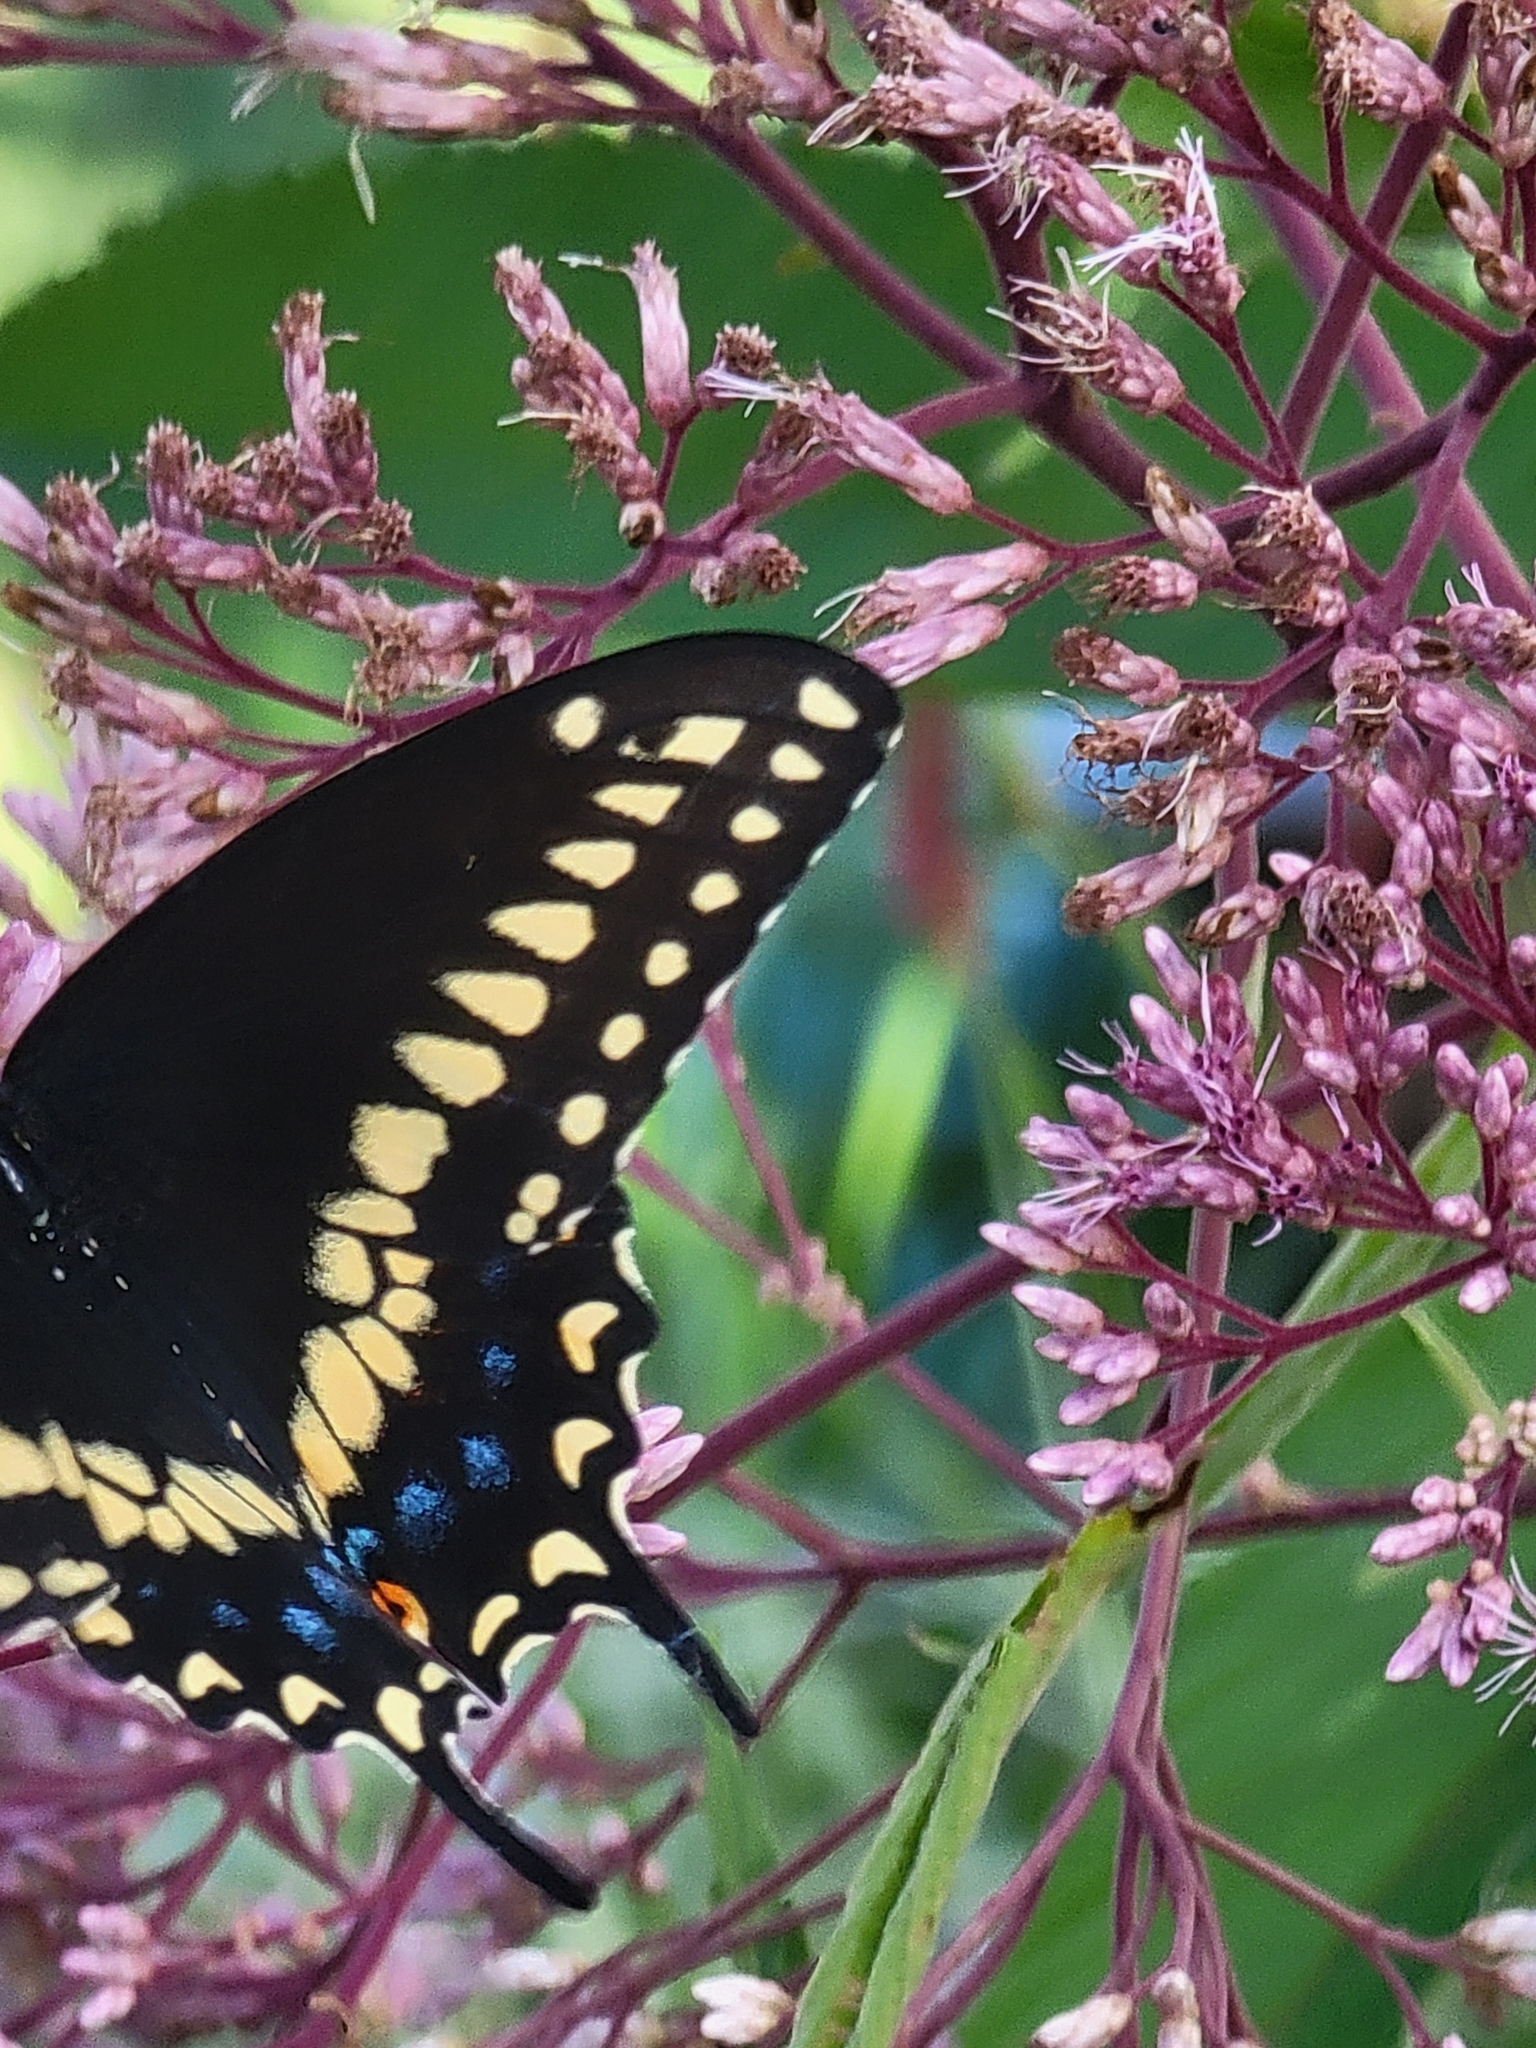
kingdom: Animalia
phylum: Arthropoda
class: Insecta
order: Lepidoptera
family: Papilionidae
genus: Papilio
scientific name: Papilio polyxenes
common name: Black swallowtail
